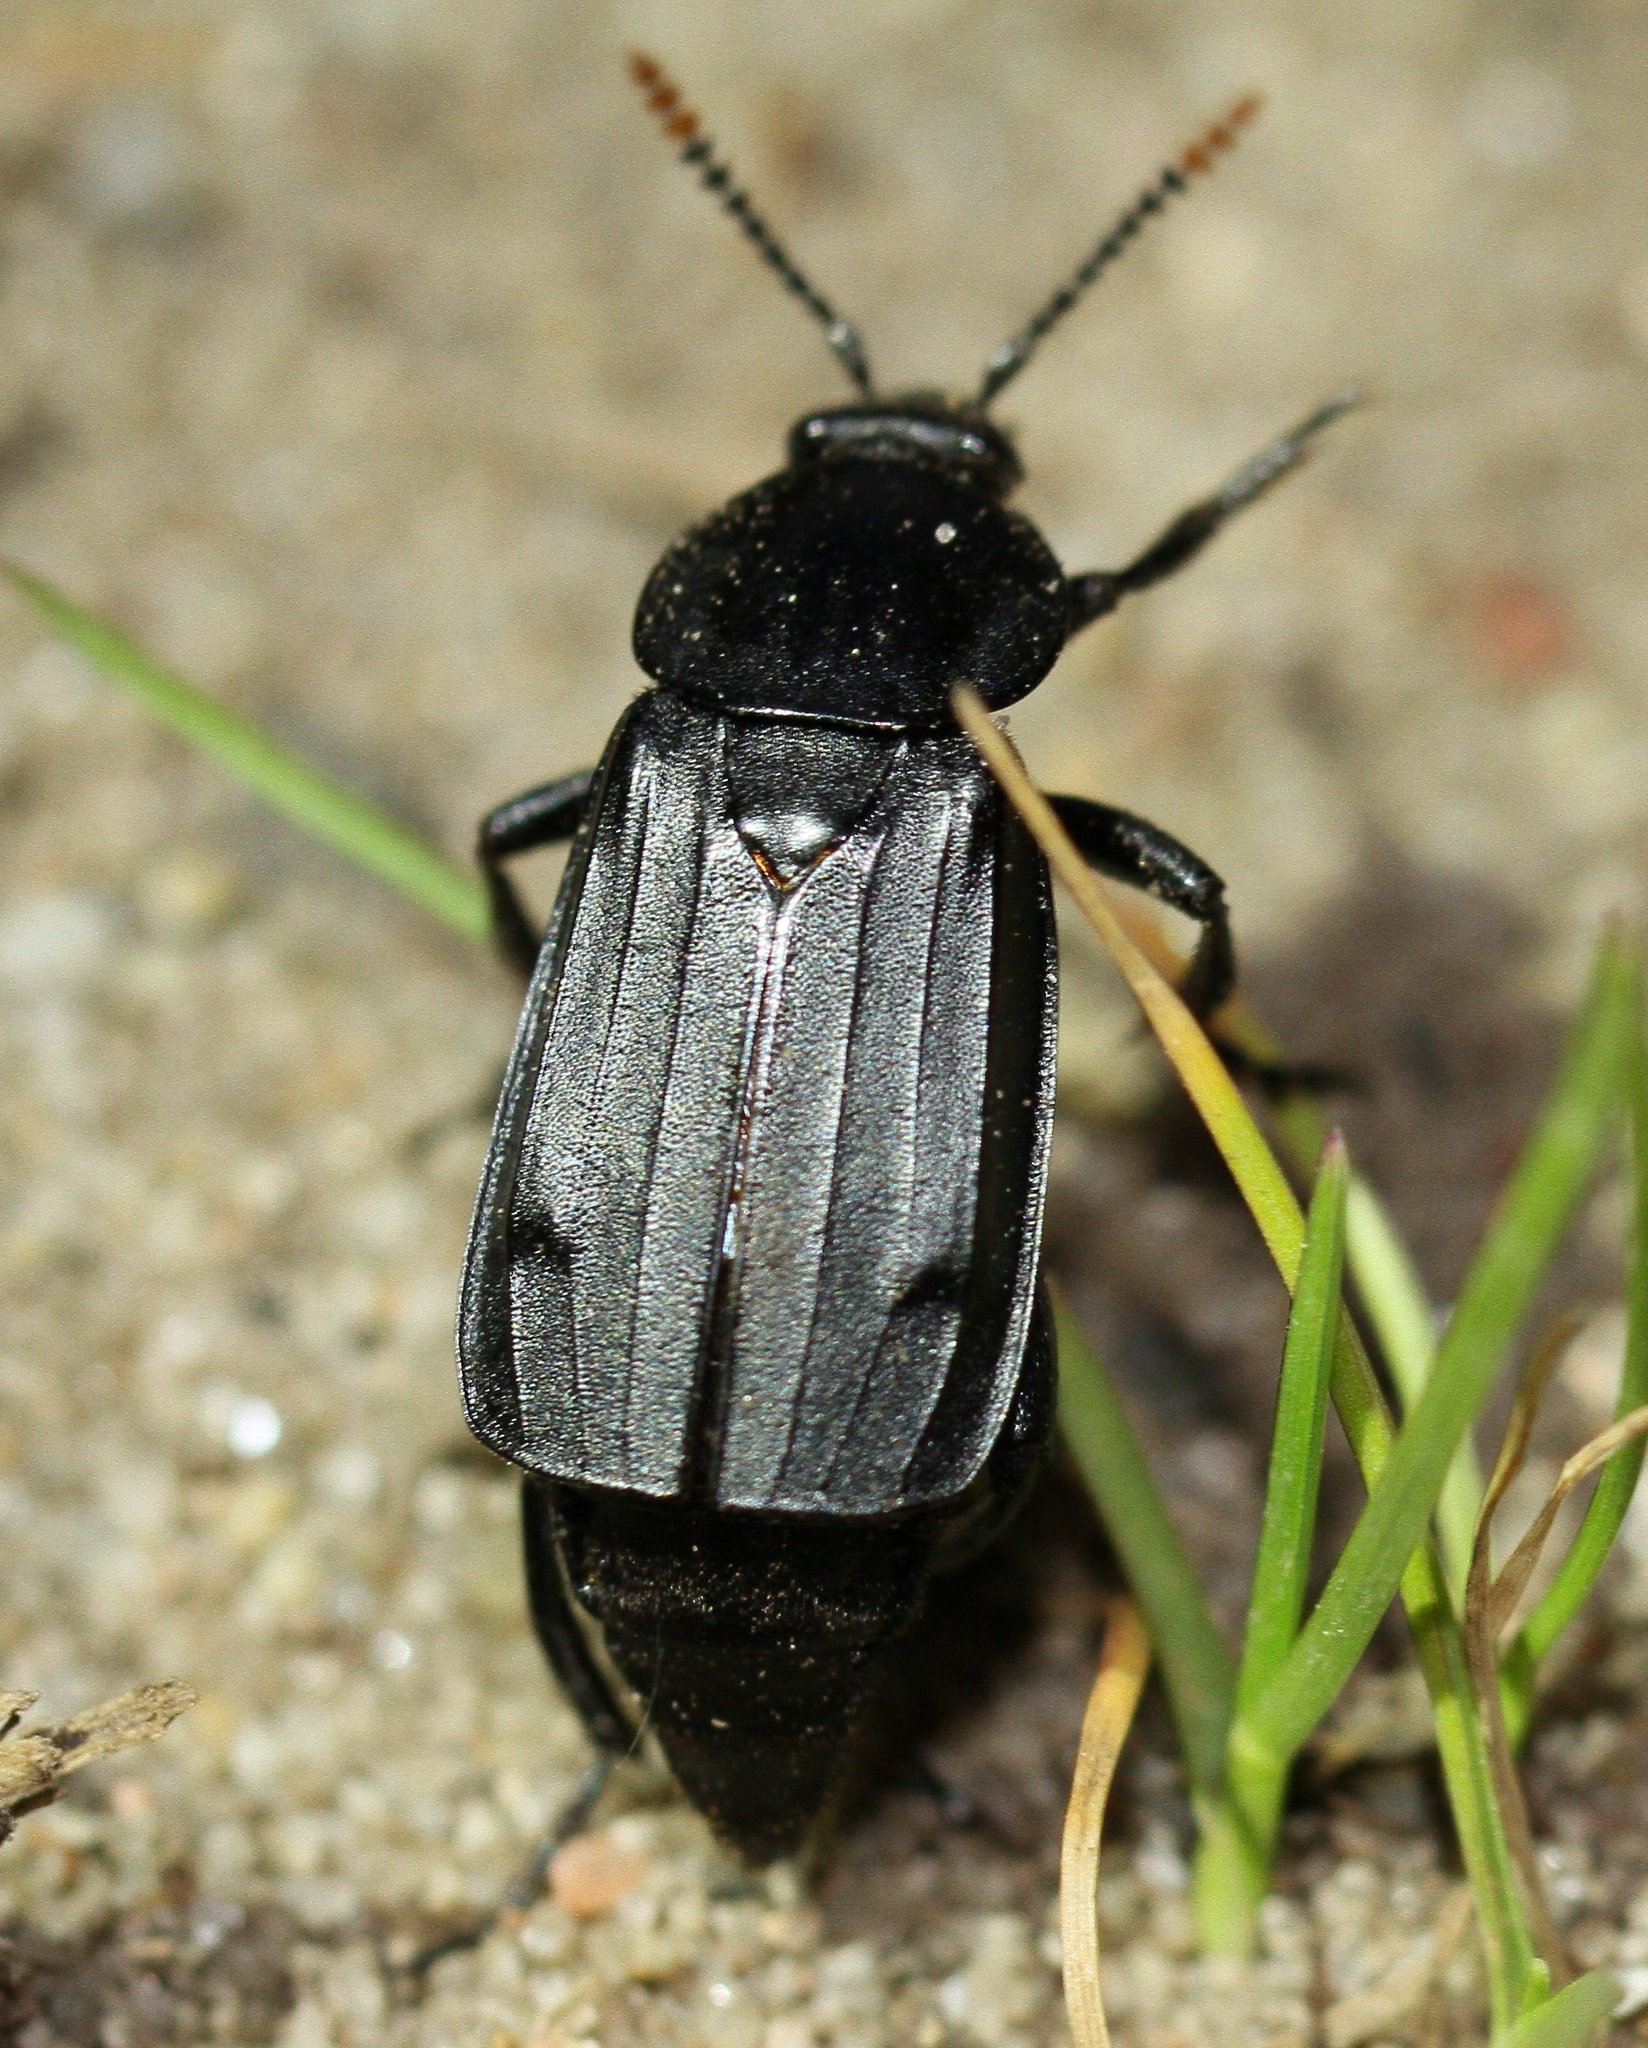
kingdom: Animalia
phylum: Arthropoda
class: Insecta
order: Coleoptera
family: Staphylinidae
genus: Necrodes
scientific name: Necrodes littoralis
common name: Shore sexton beetle
